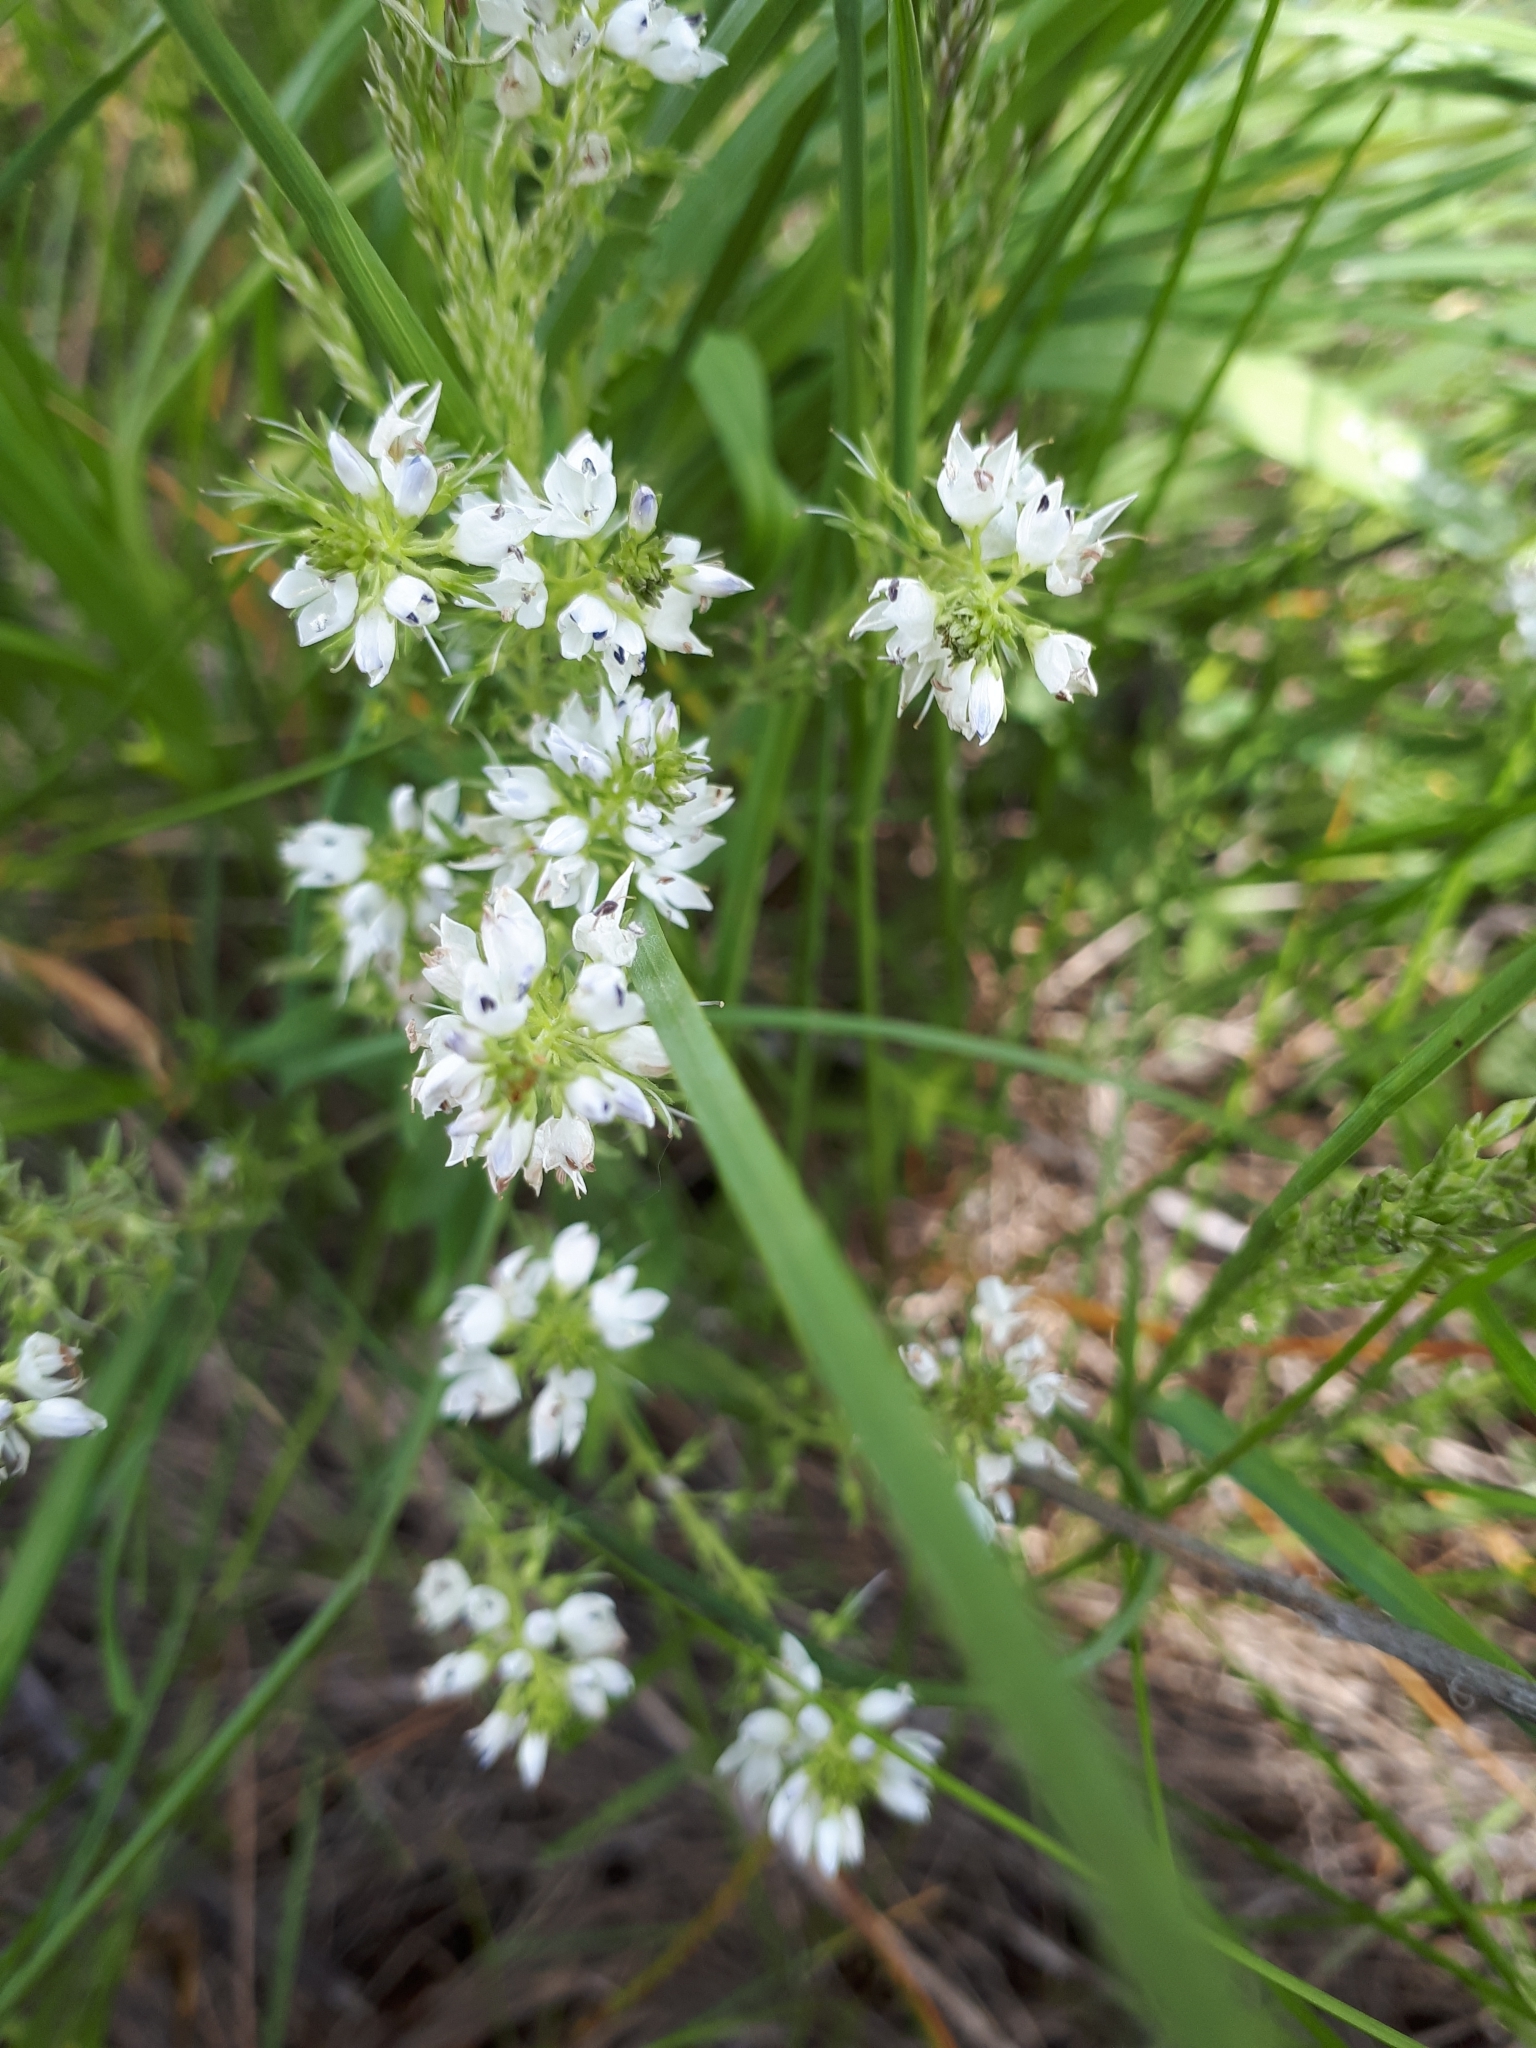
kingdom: Plantae
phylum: Tracheophyta
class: Magnoliopsida
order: Lamiales
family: Plantaginaceae
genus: Veronica
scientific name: Veronica prostrata
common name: Prostrate speedwell
